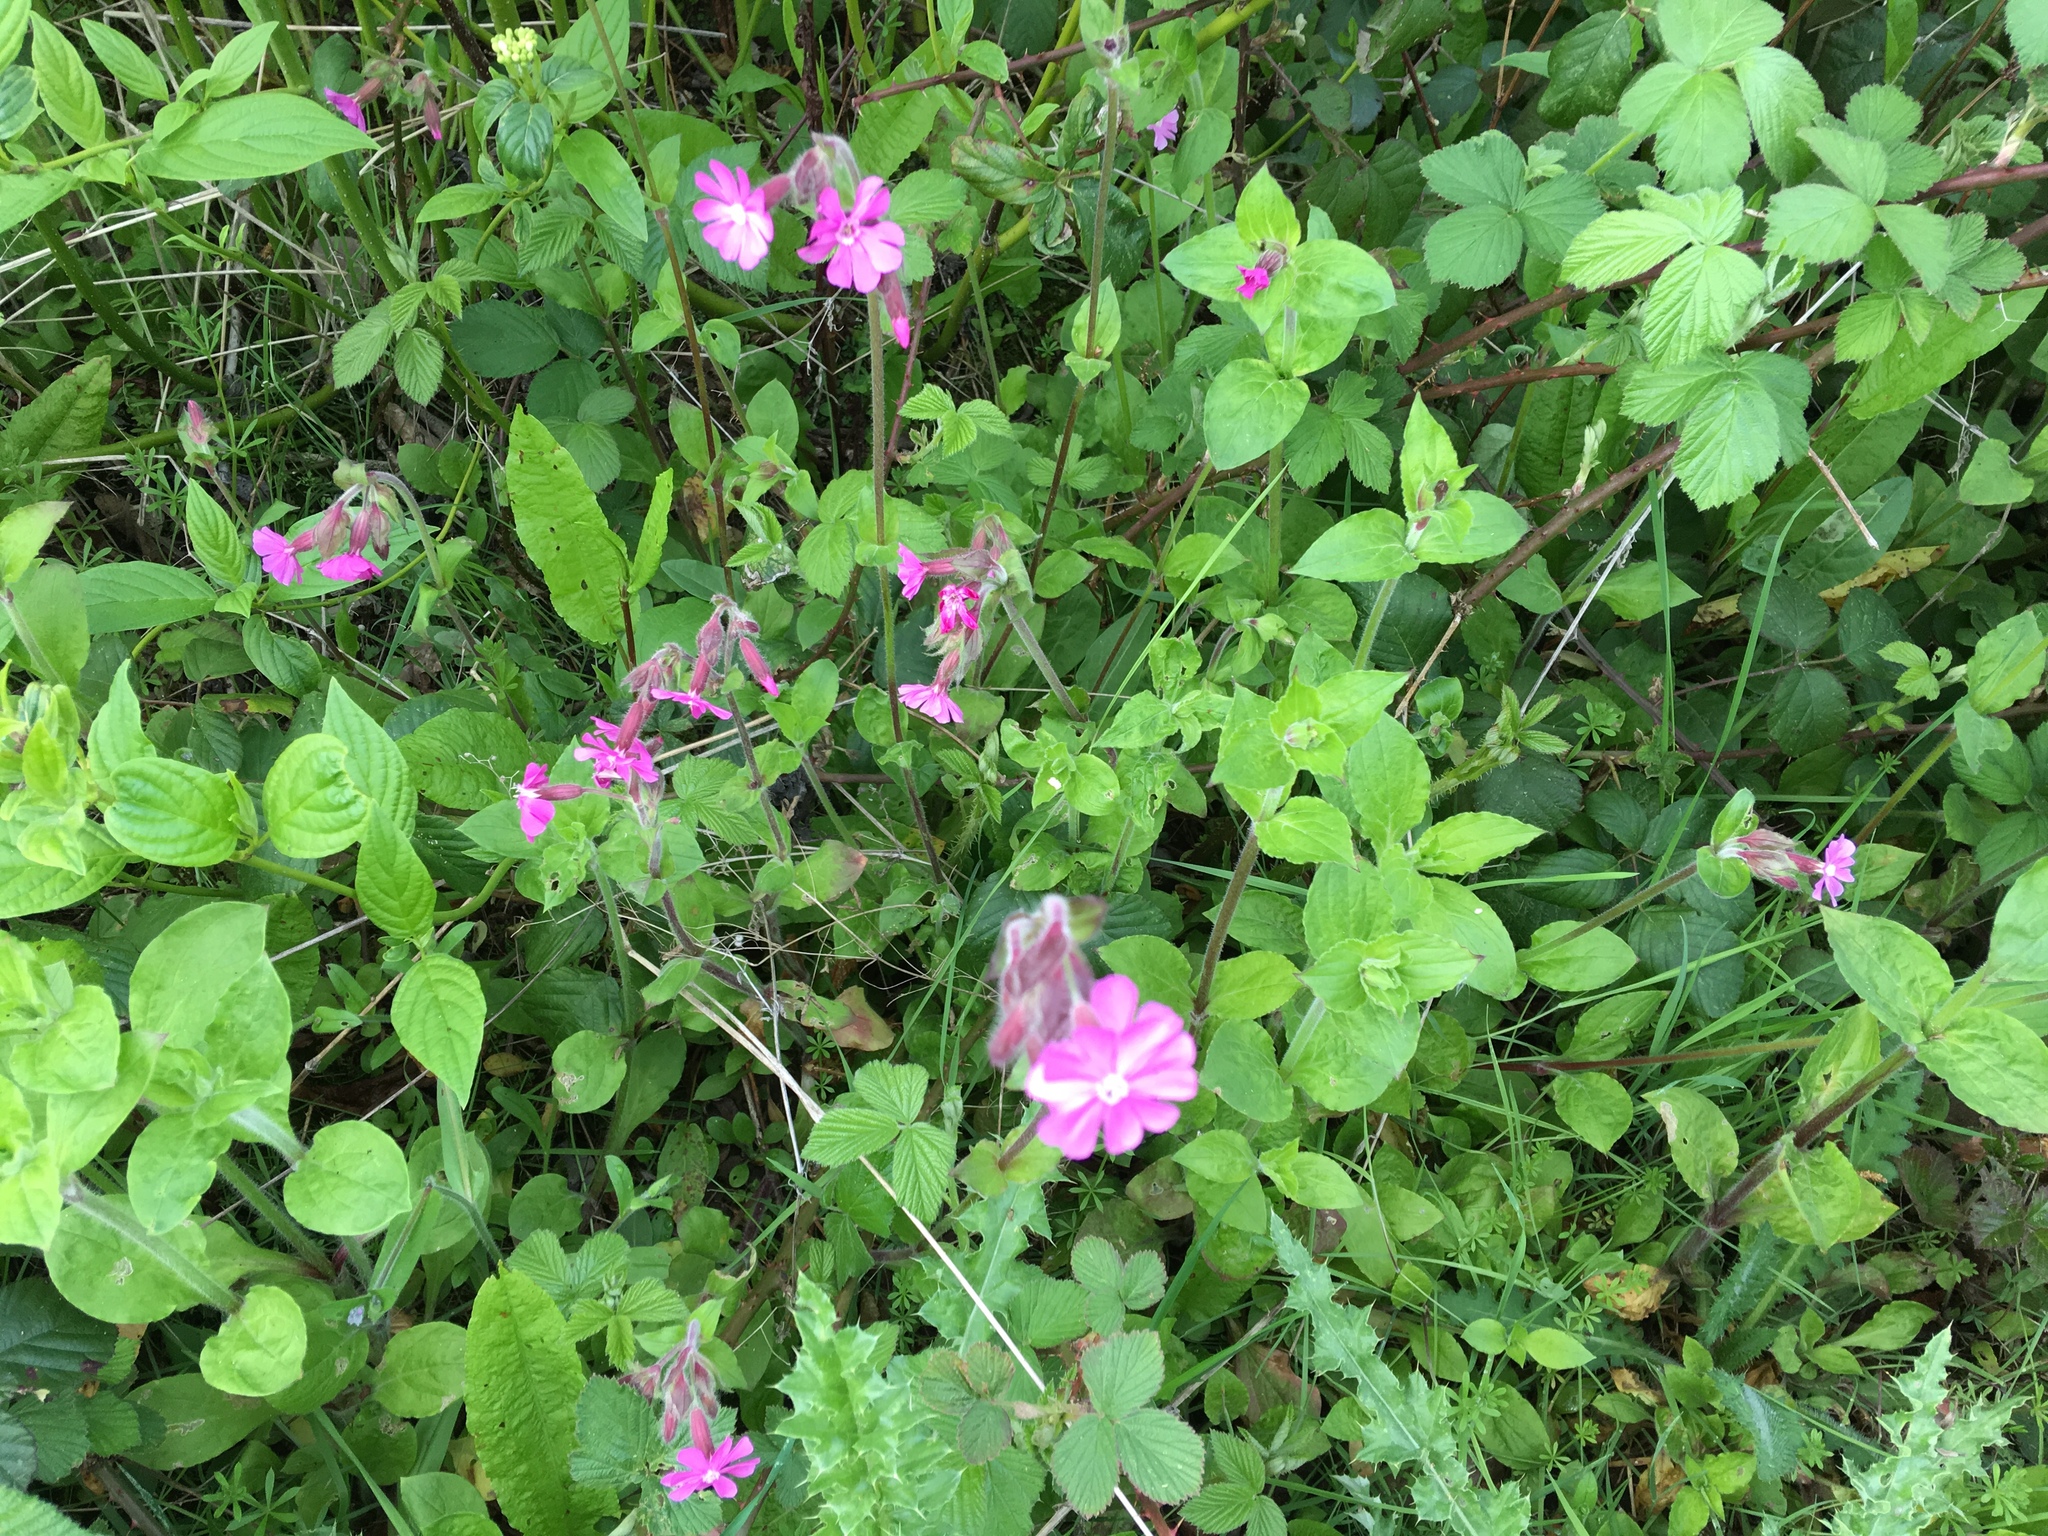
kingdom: Plantae
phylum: Tracheophyta
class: Magnoliopsida
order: Caryophyllales
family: Caryophyllaceae
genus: Silene
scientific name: Silene dioica
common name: Red campion
